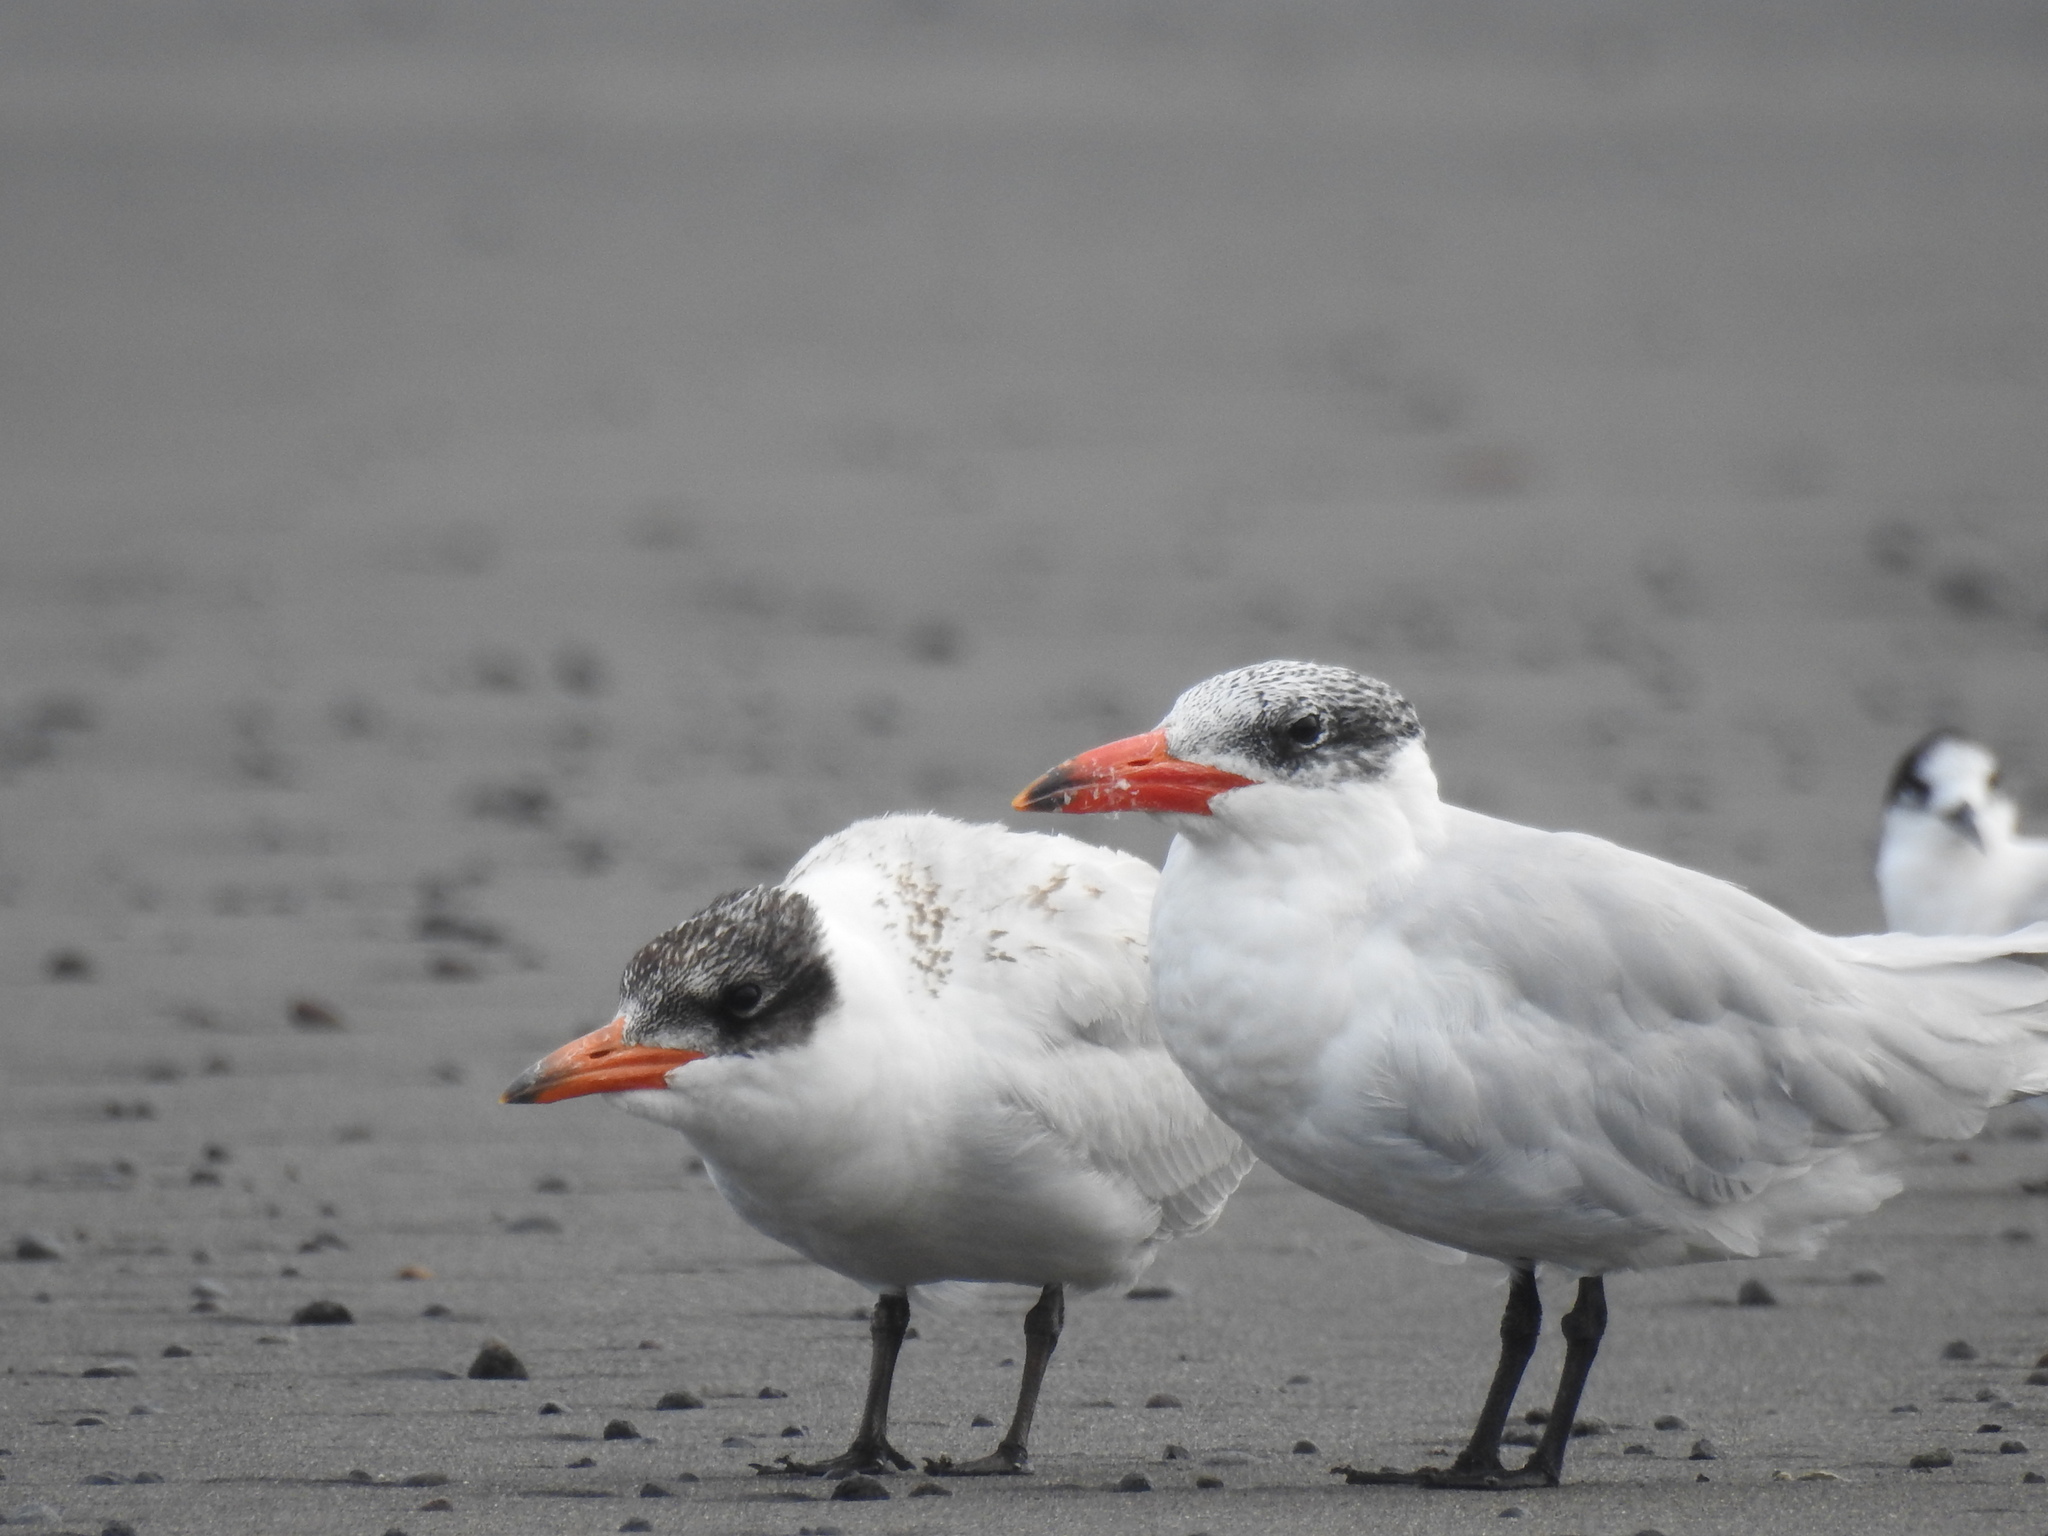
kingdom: Animalia
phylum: Chordata
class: Aves
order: Charadriiformes
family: Laridae
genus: Hydroprogne
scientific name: Hydroprogne caspia
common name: Caspian tern
